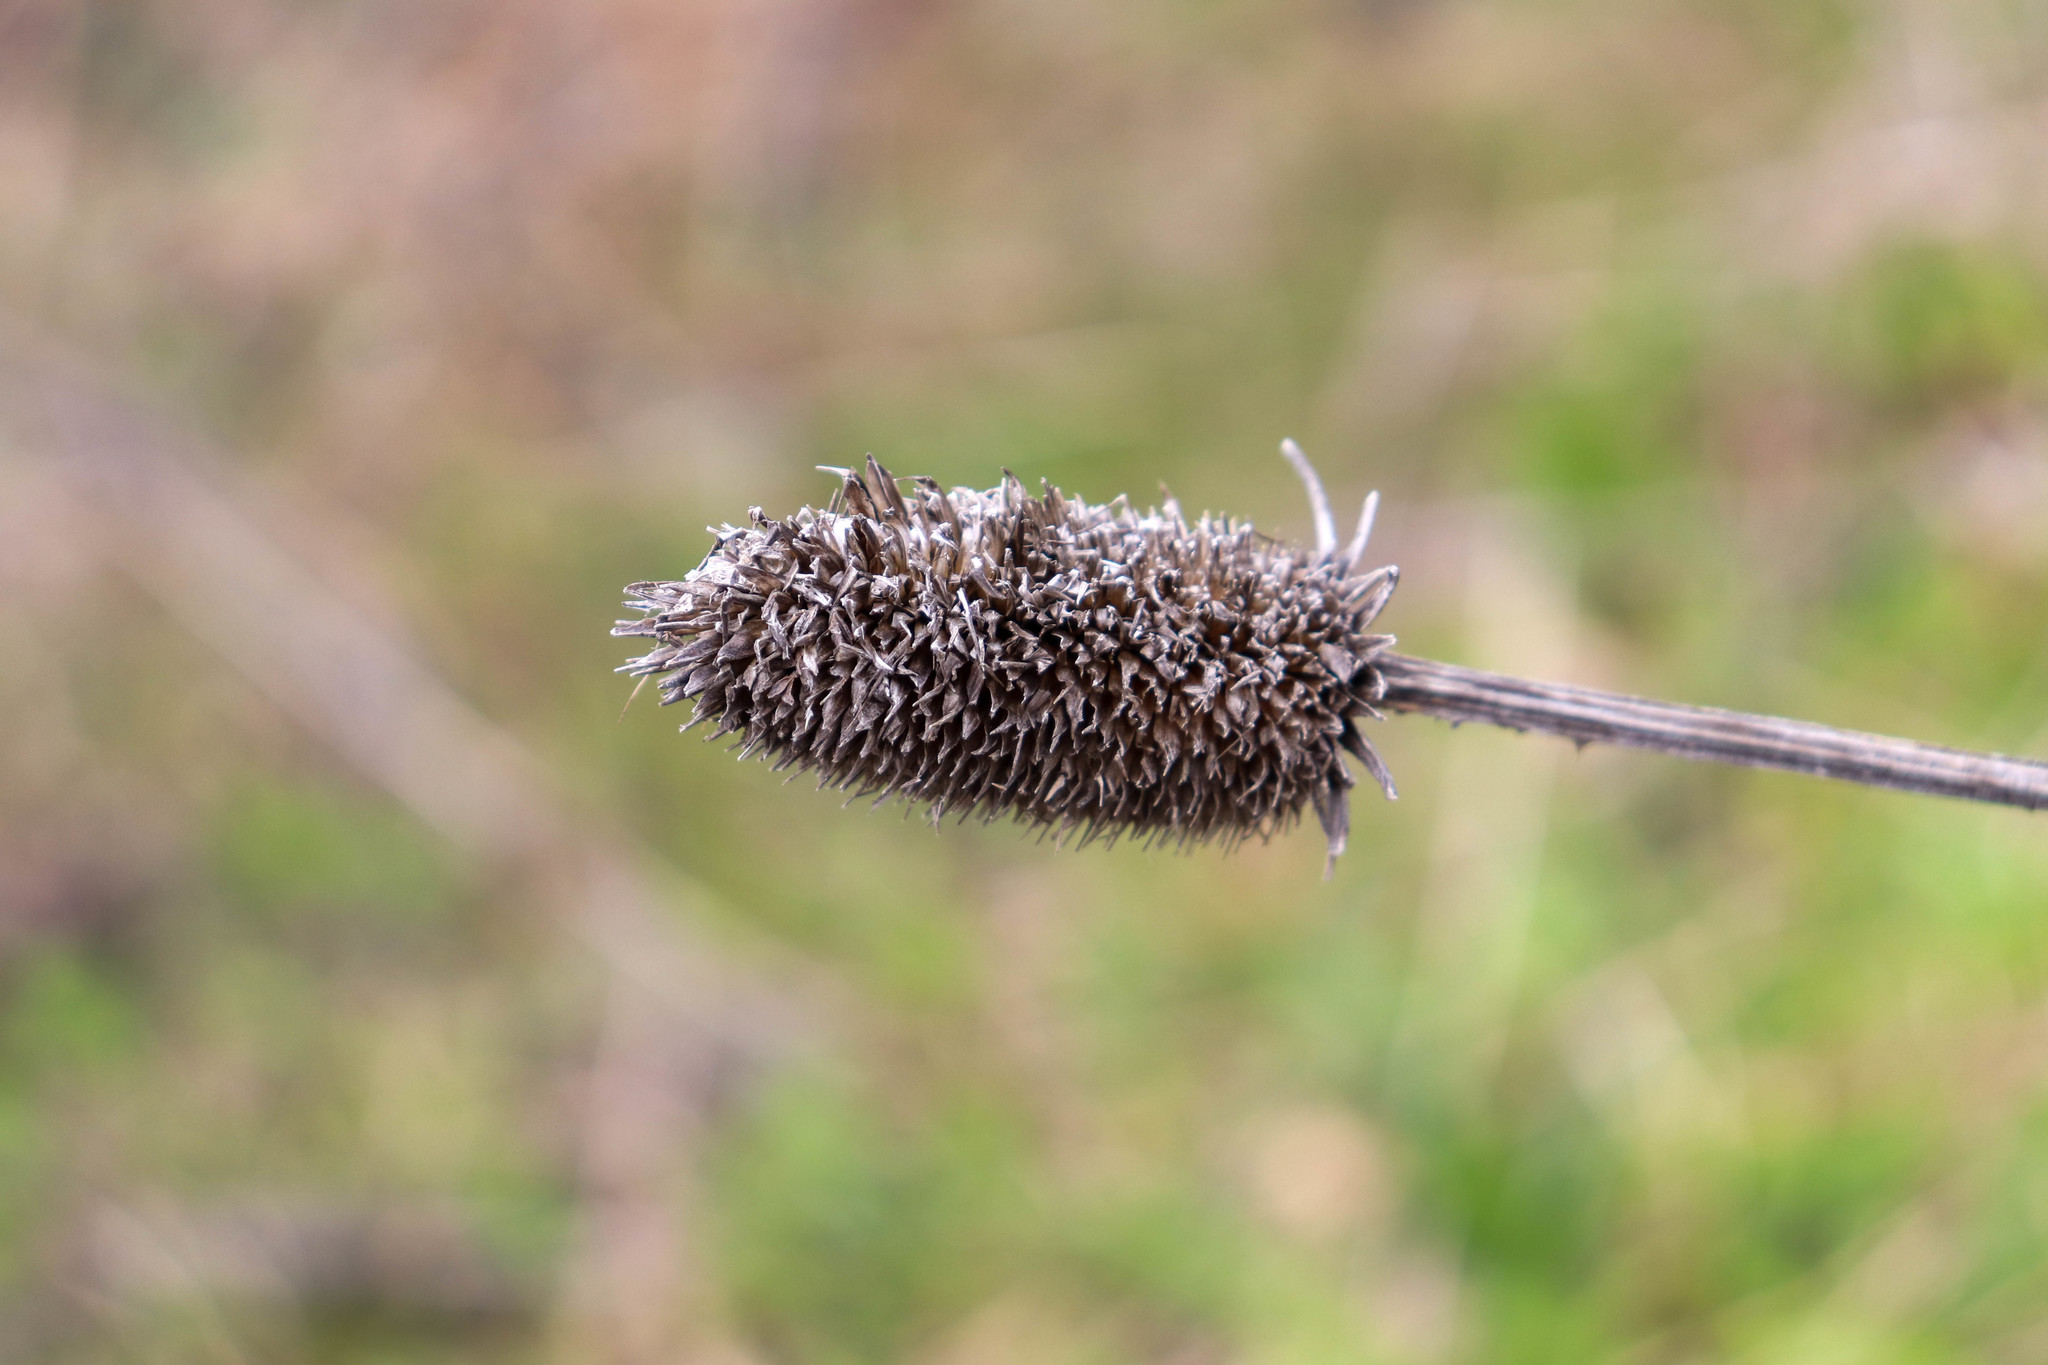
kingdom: Plantae
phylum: Tracheophyta
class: Magnoliopsida
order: Dipsacales
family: Caprifoliaceae
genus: Dipsacus
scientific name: Dipsacus fullonum
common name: Teasel
